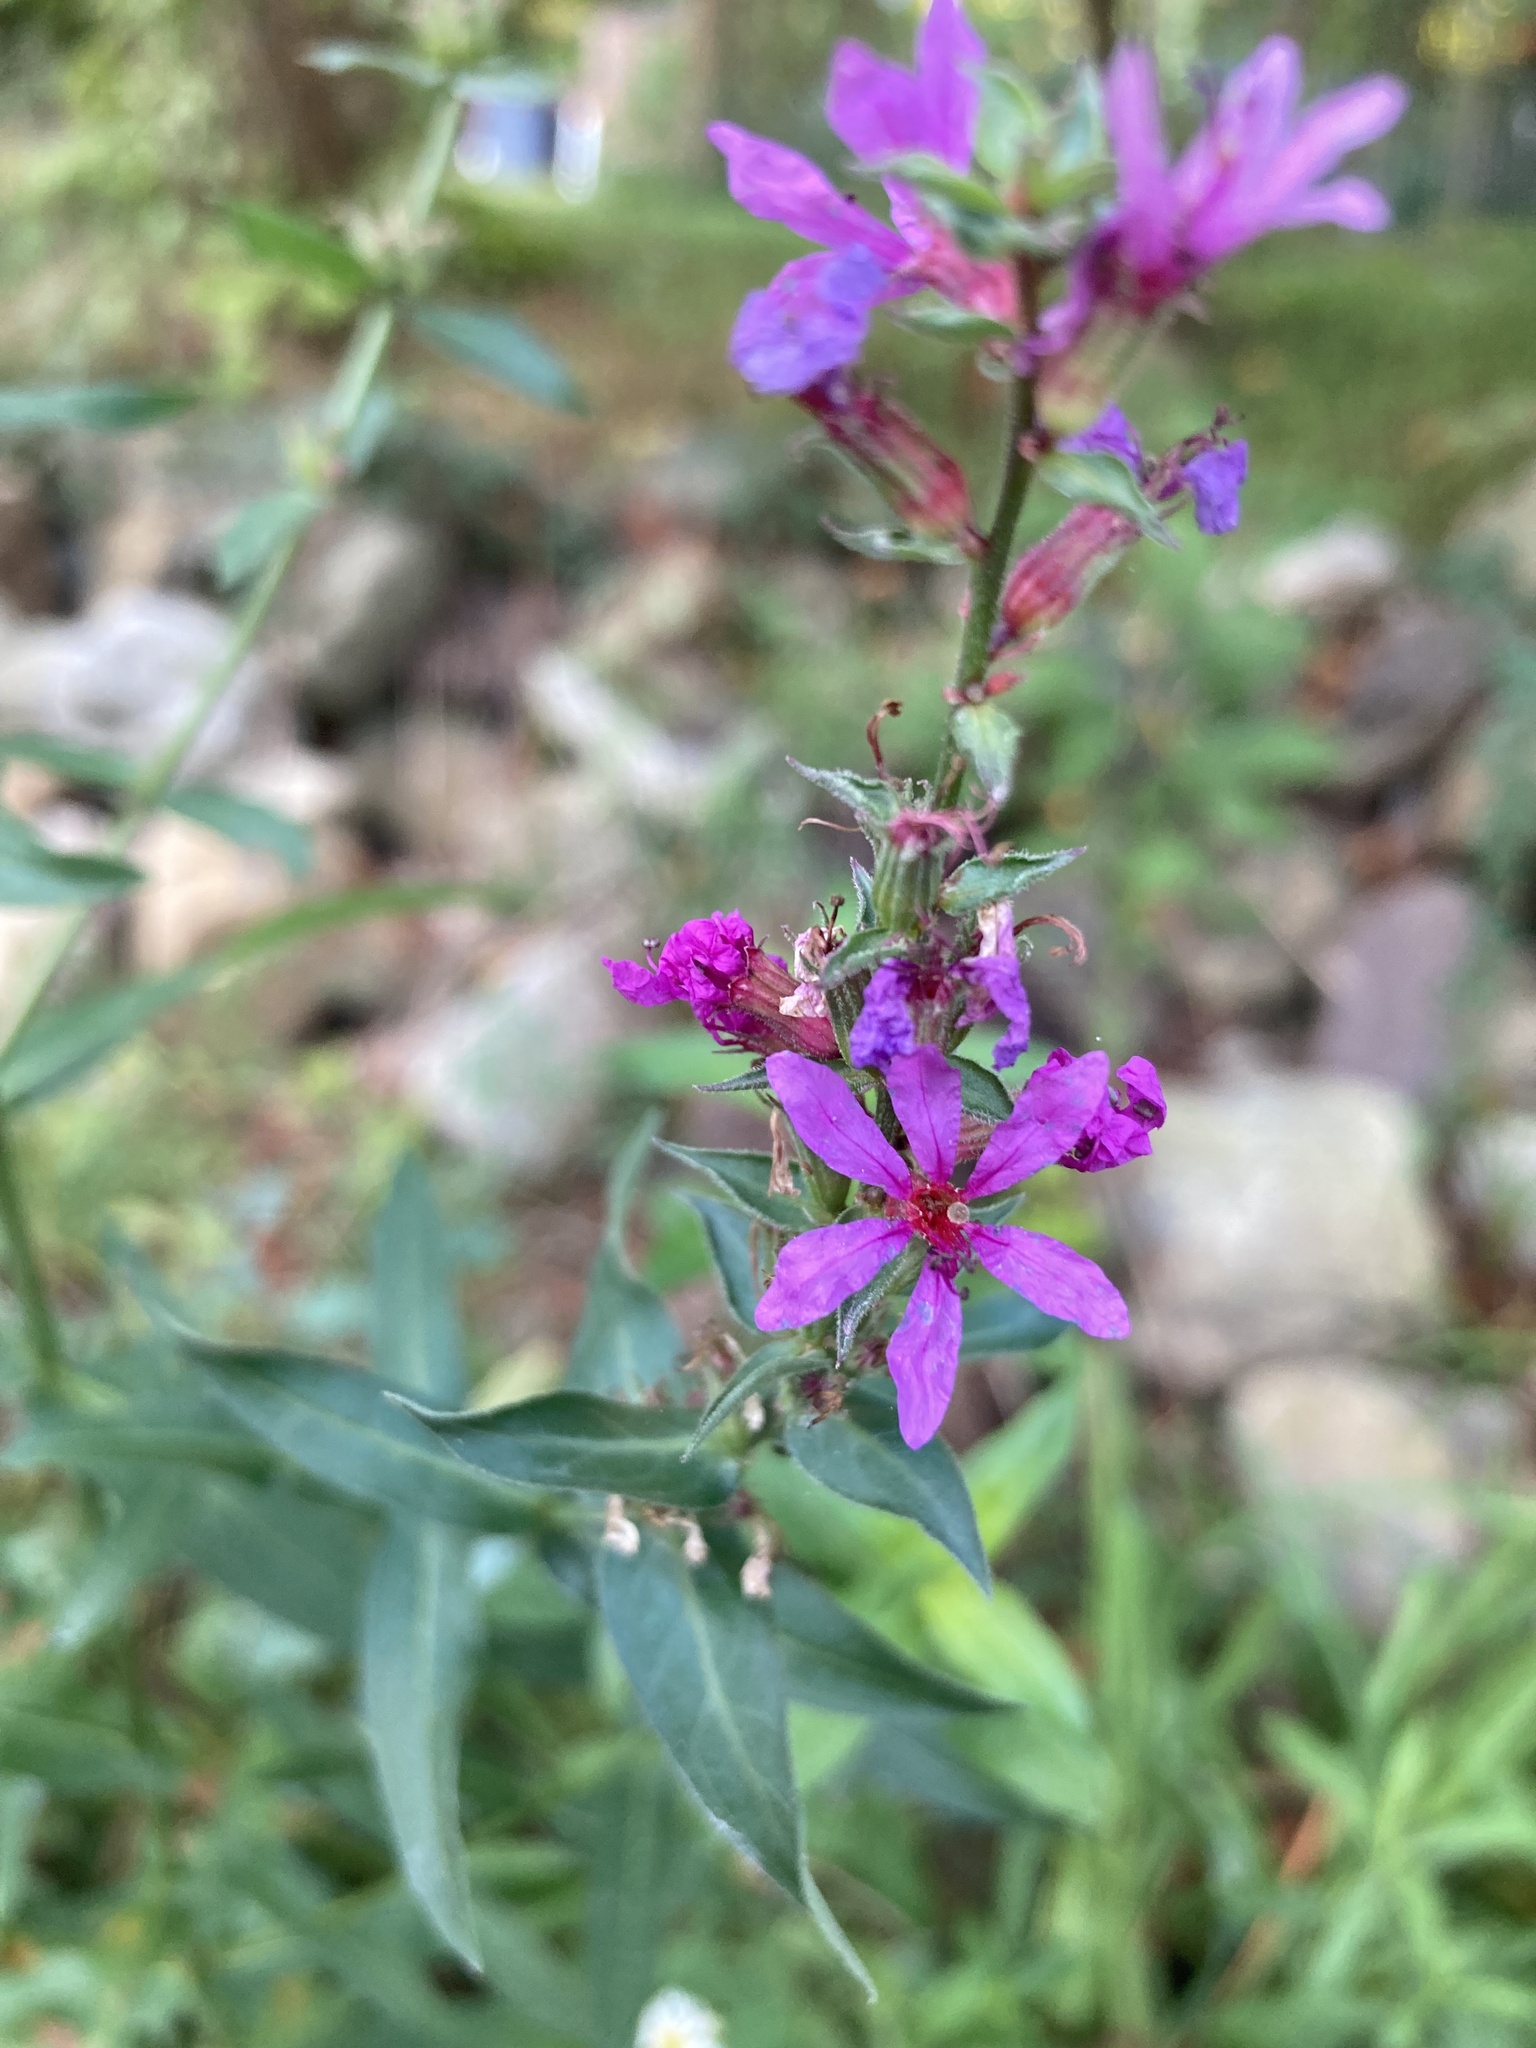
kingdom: Plantae
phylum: Tracheophyta
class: Magnoliopsida
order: Myrtales
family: Lythraceae
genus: Lythrum
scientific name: Lythrum salicaria
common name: Purple loosestrife
